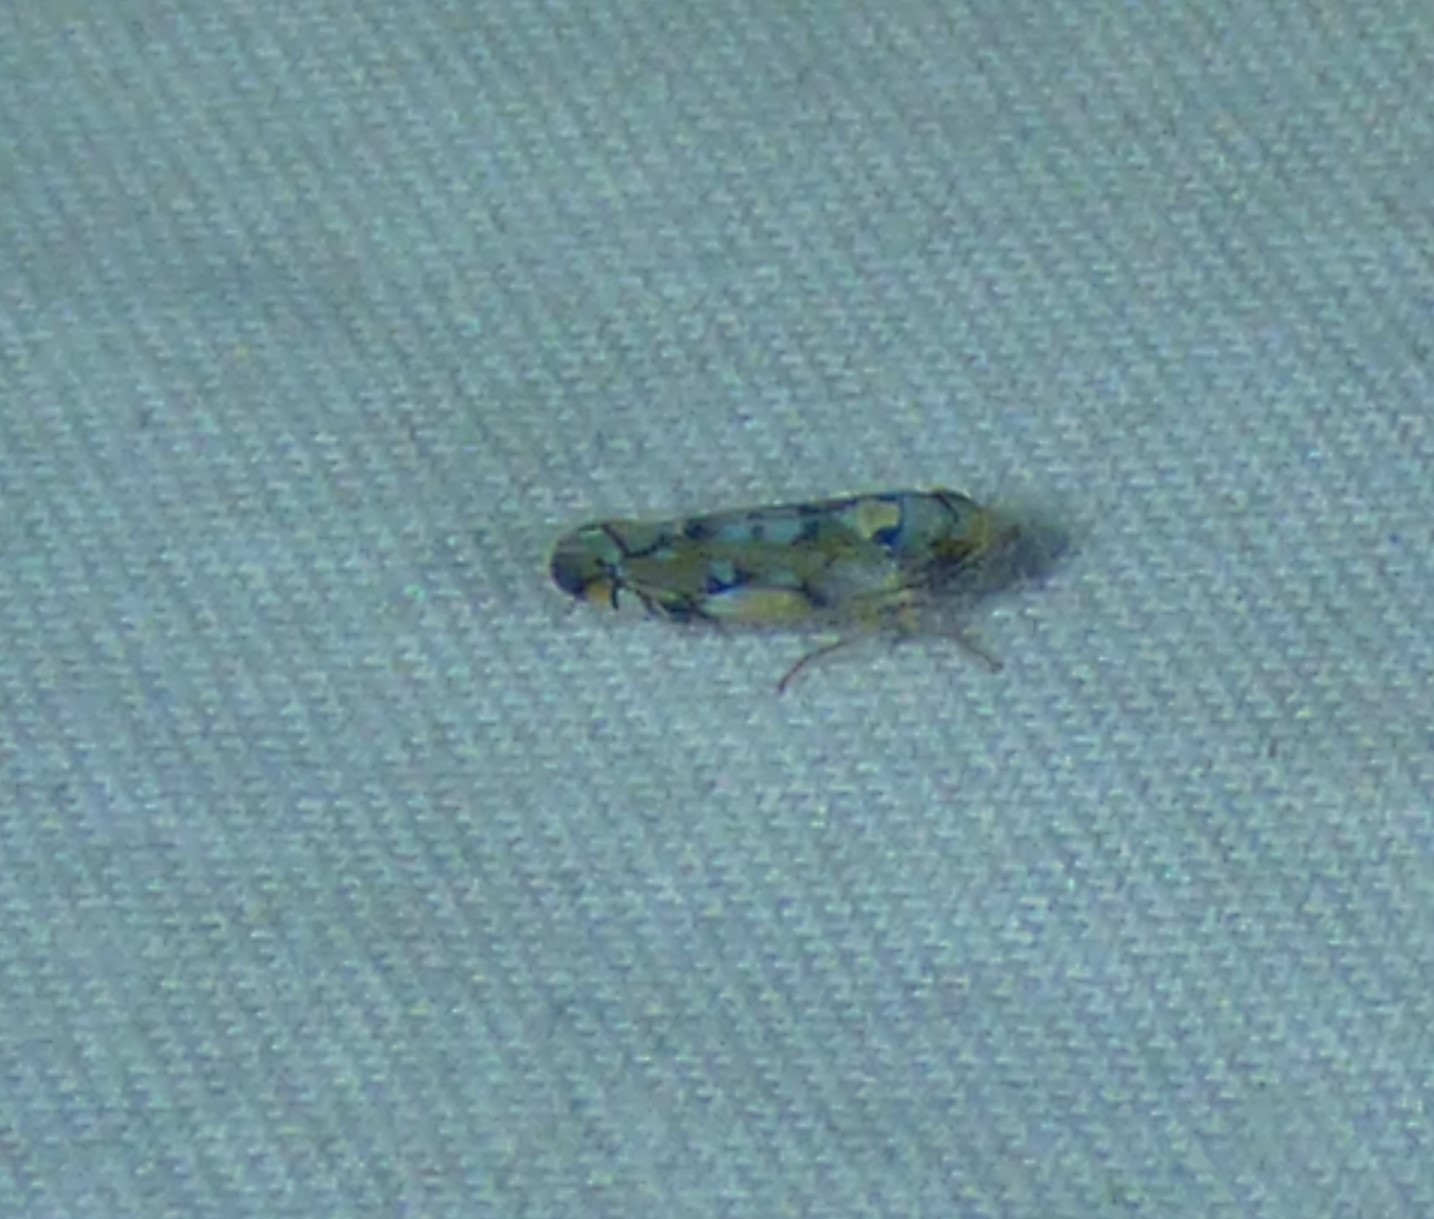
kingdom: Animalia
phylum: Arthropoda
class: Insecta
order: Hemiptera
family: Cicadellidae
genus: Scaphoideus
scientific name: Scaphoideus opalinus
